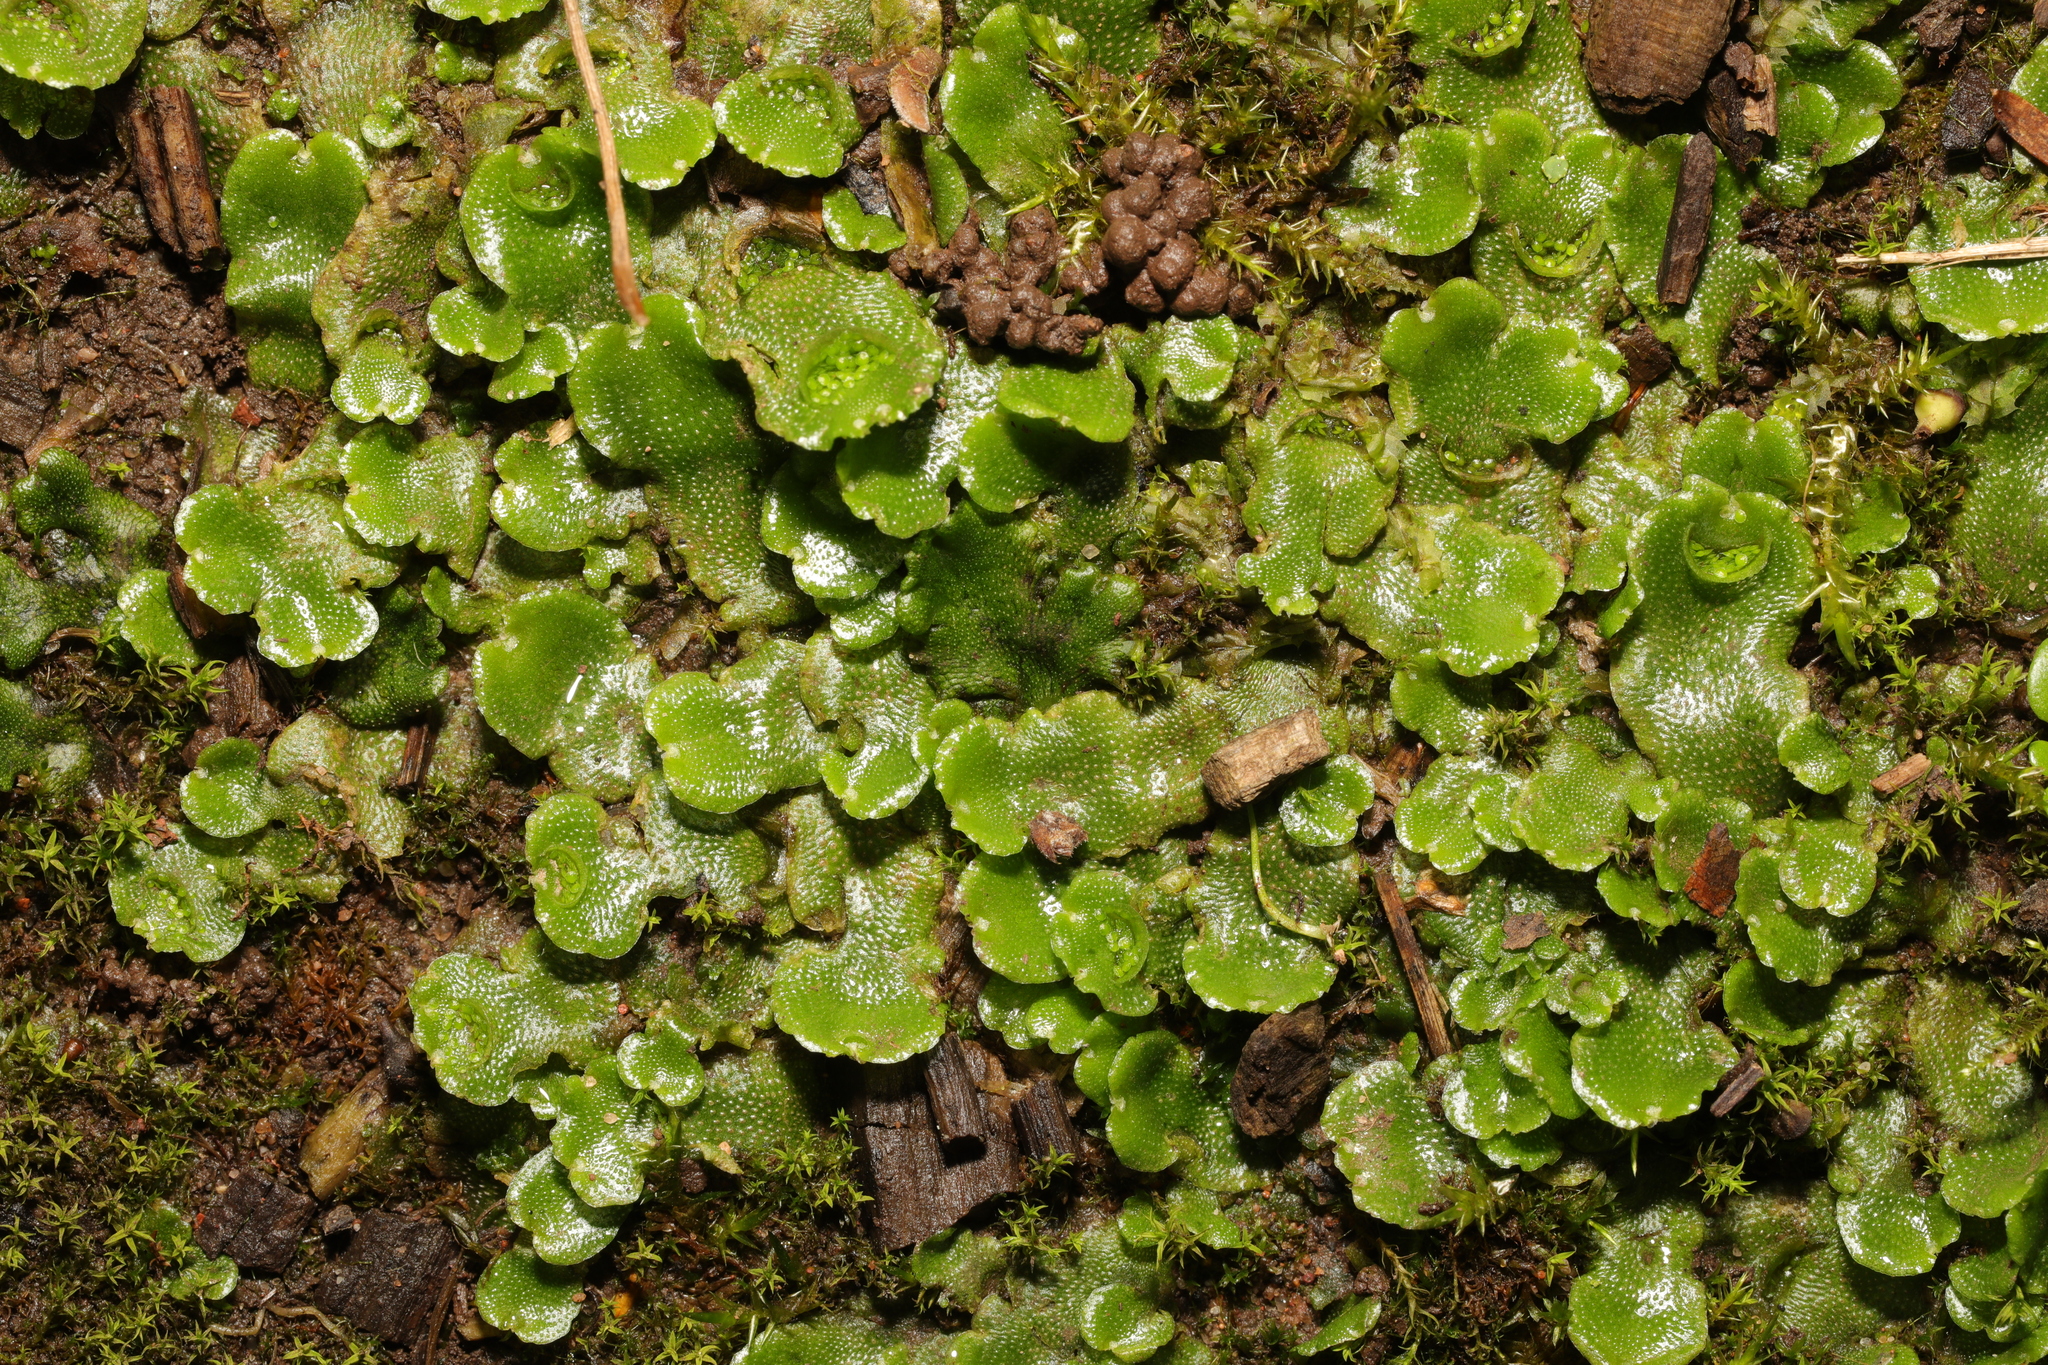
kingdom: Plantae
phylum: Marchantiophyta
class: Marchantiopsida
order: Lunulariales
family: Lunulariaceae
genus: Lunularia
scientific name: Lunularia cruciata
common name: Crescent-cup liverwort
